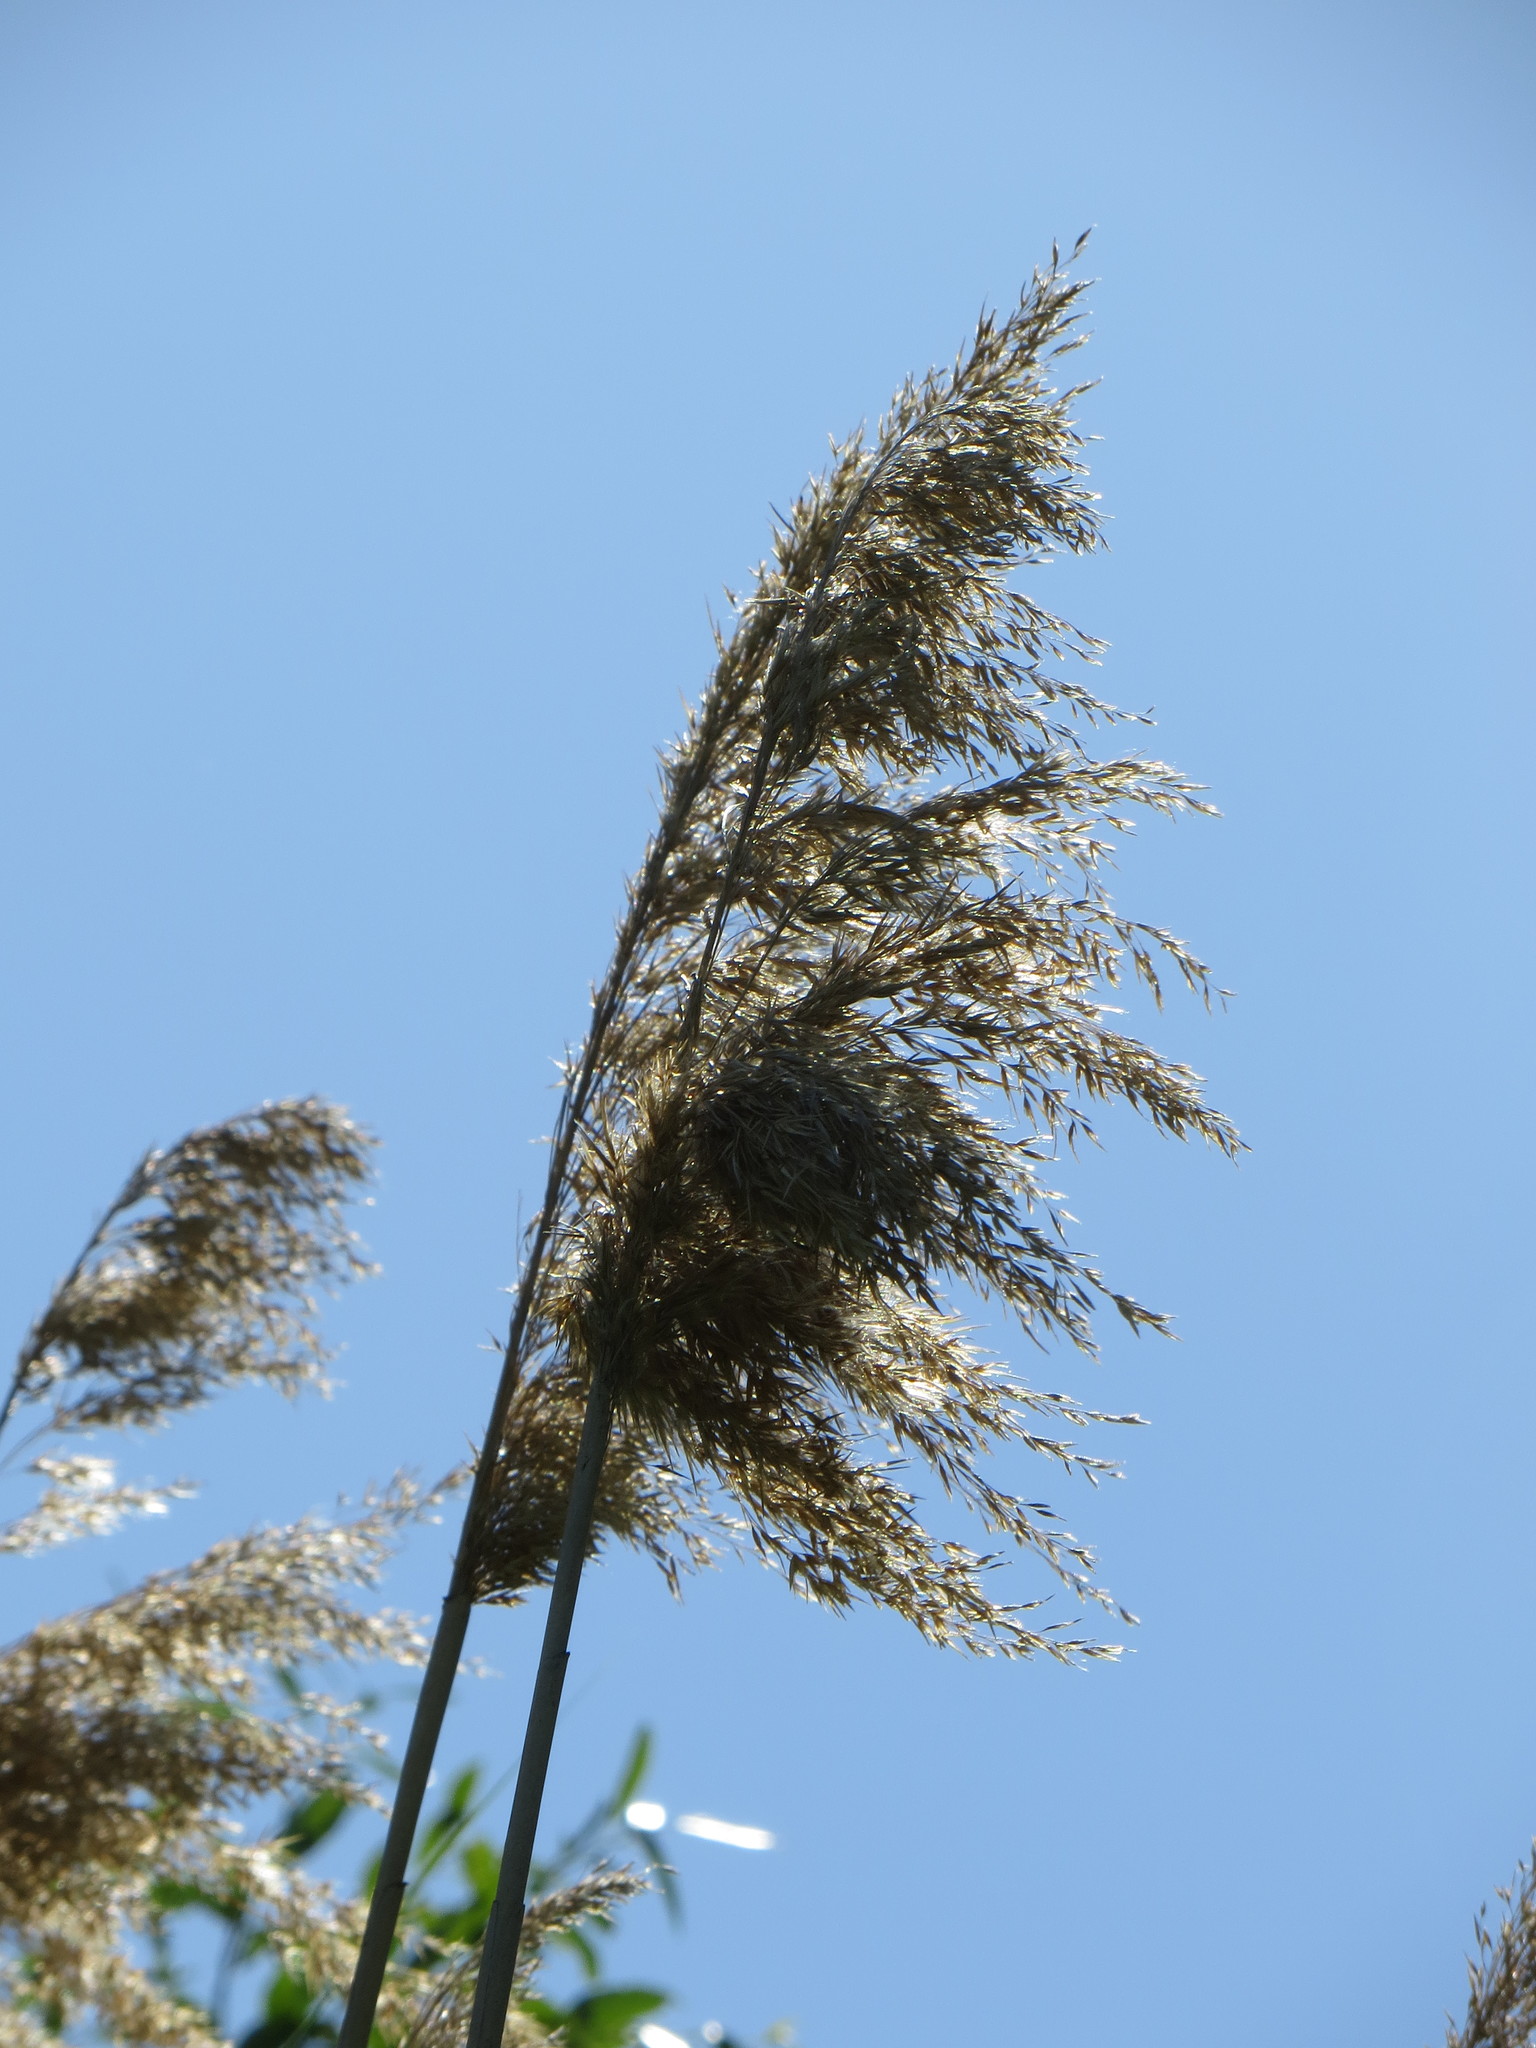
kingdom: Plantae
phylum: Tracheophyta
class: Liliopsida
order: Poales
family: Poaceae
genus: Phragmites
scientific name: Phragmites australis
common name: Common reed
